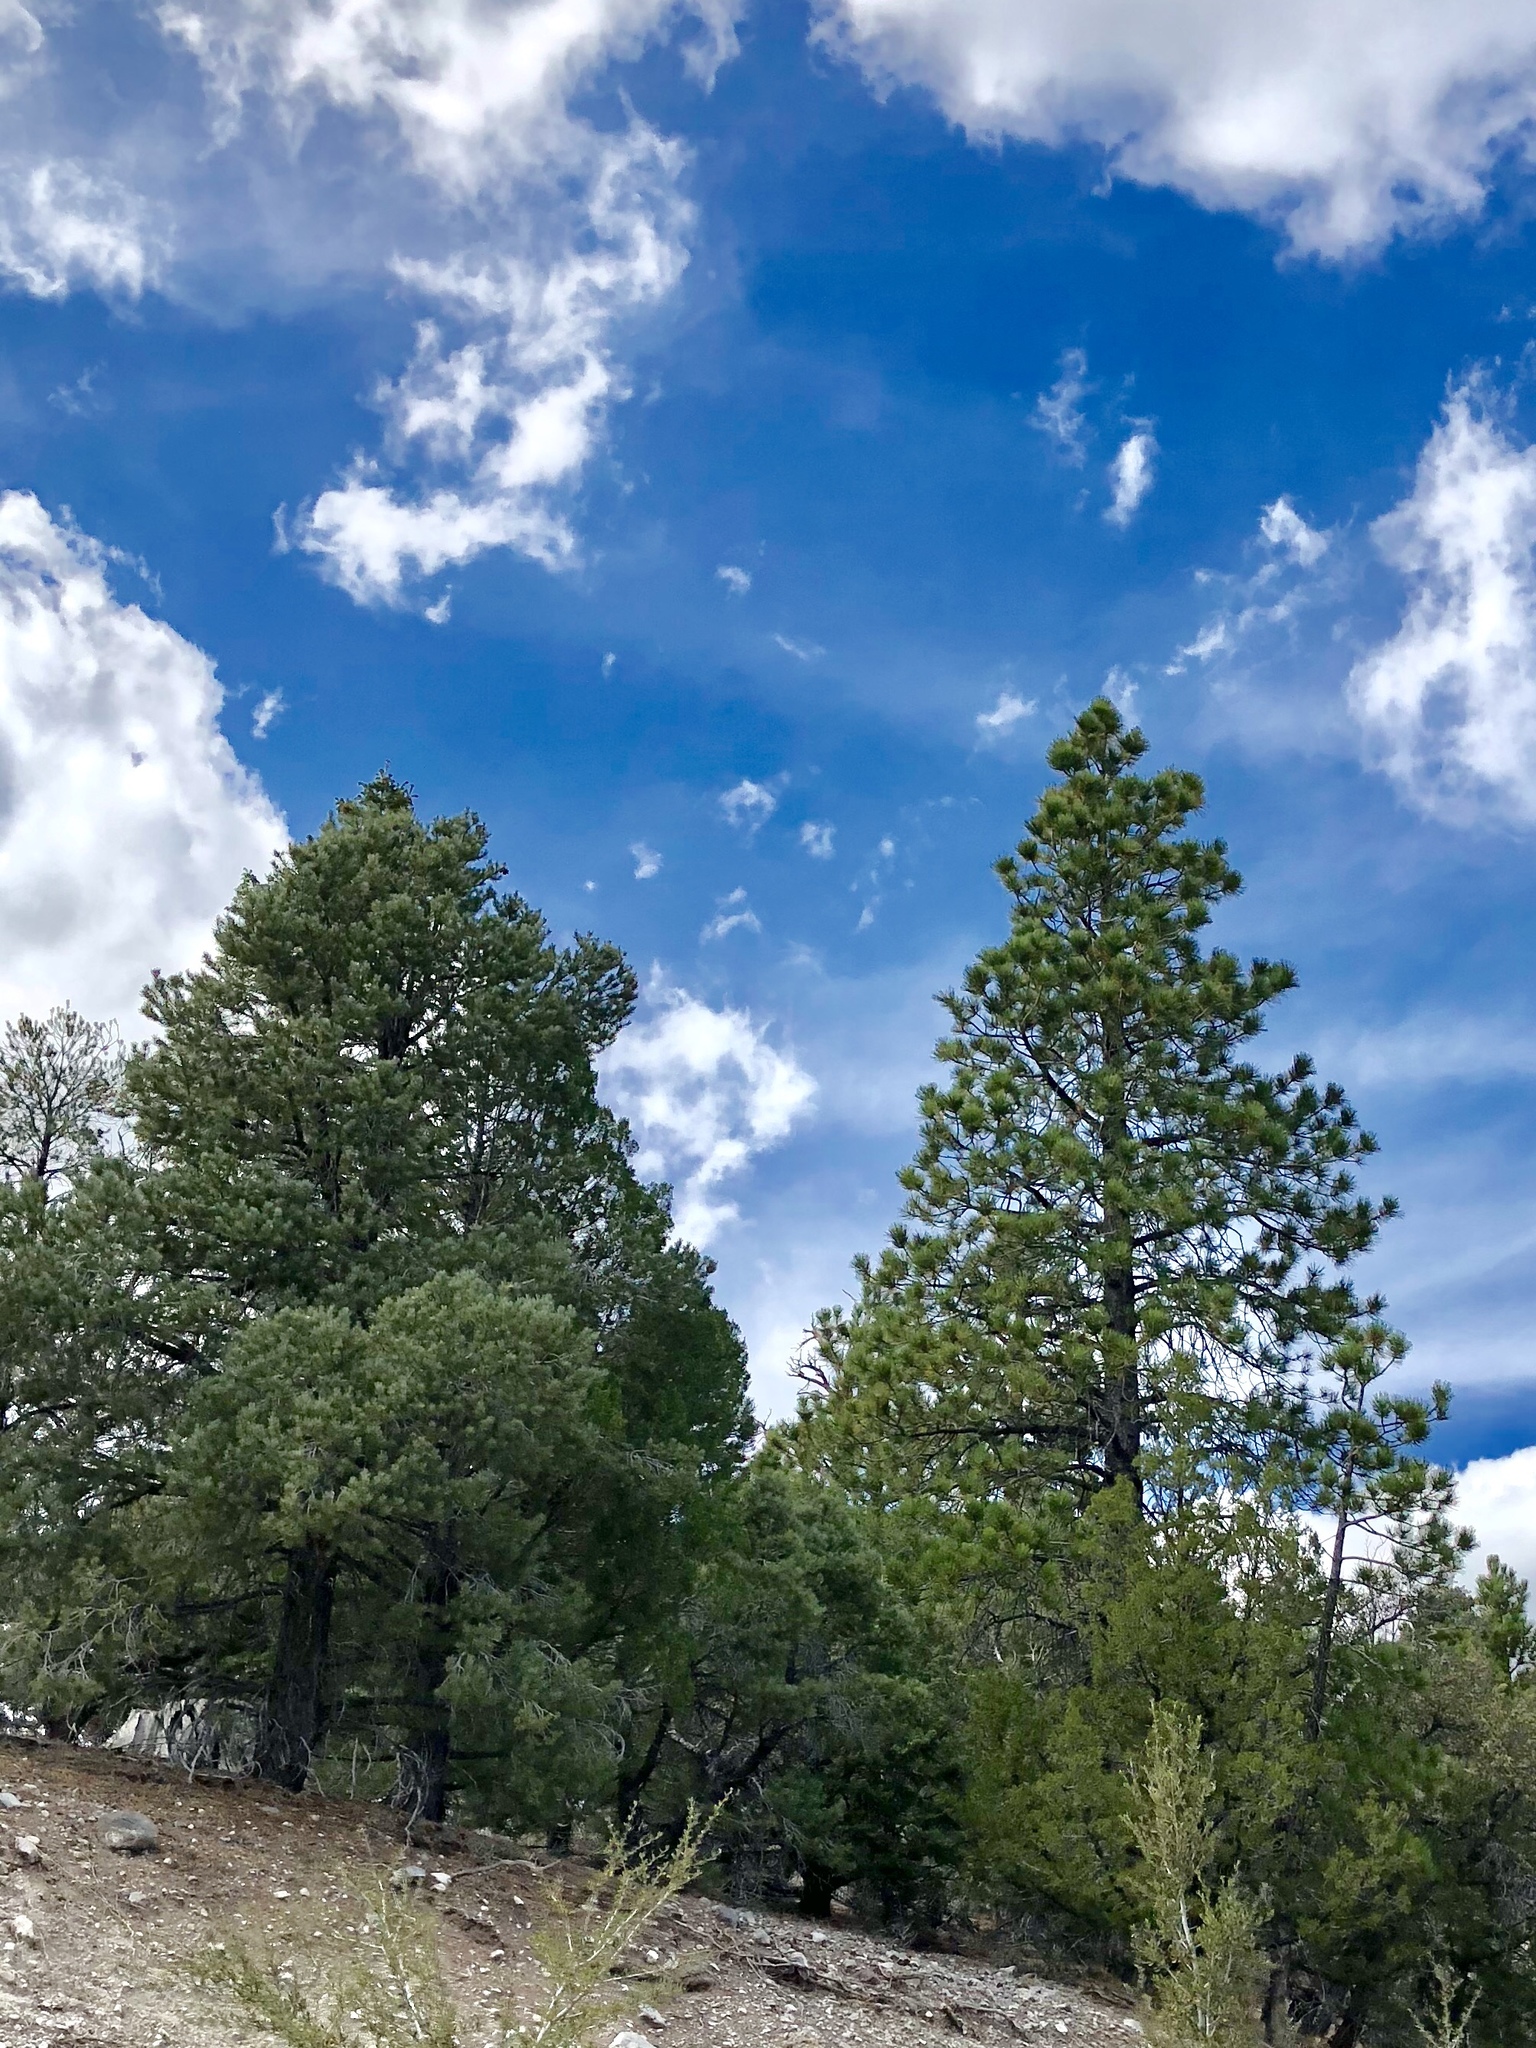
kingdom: Plantae
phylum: Tracheophyta
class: Pinopsida
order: Pinales
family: Pinaceae
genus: Pinus
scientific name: Pinus ponderosa
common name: Western yellow-pine
